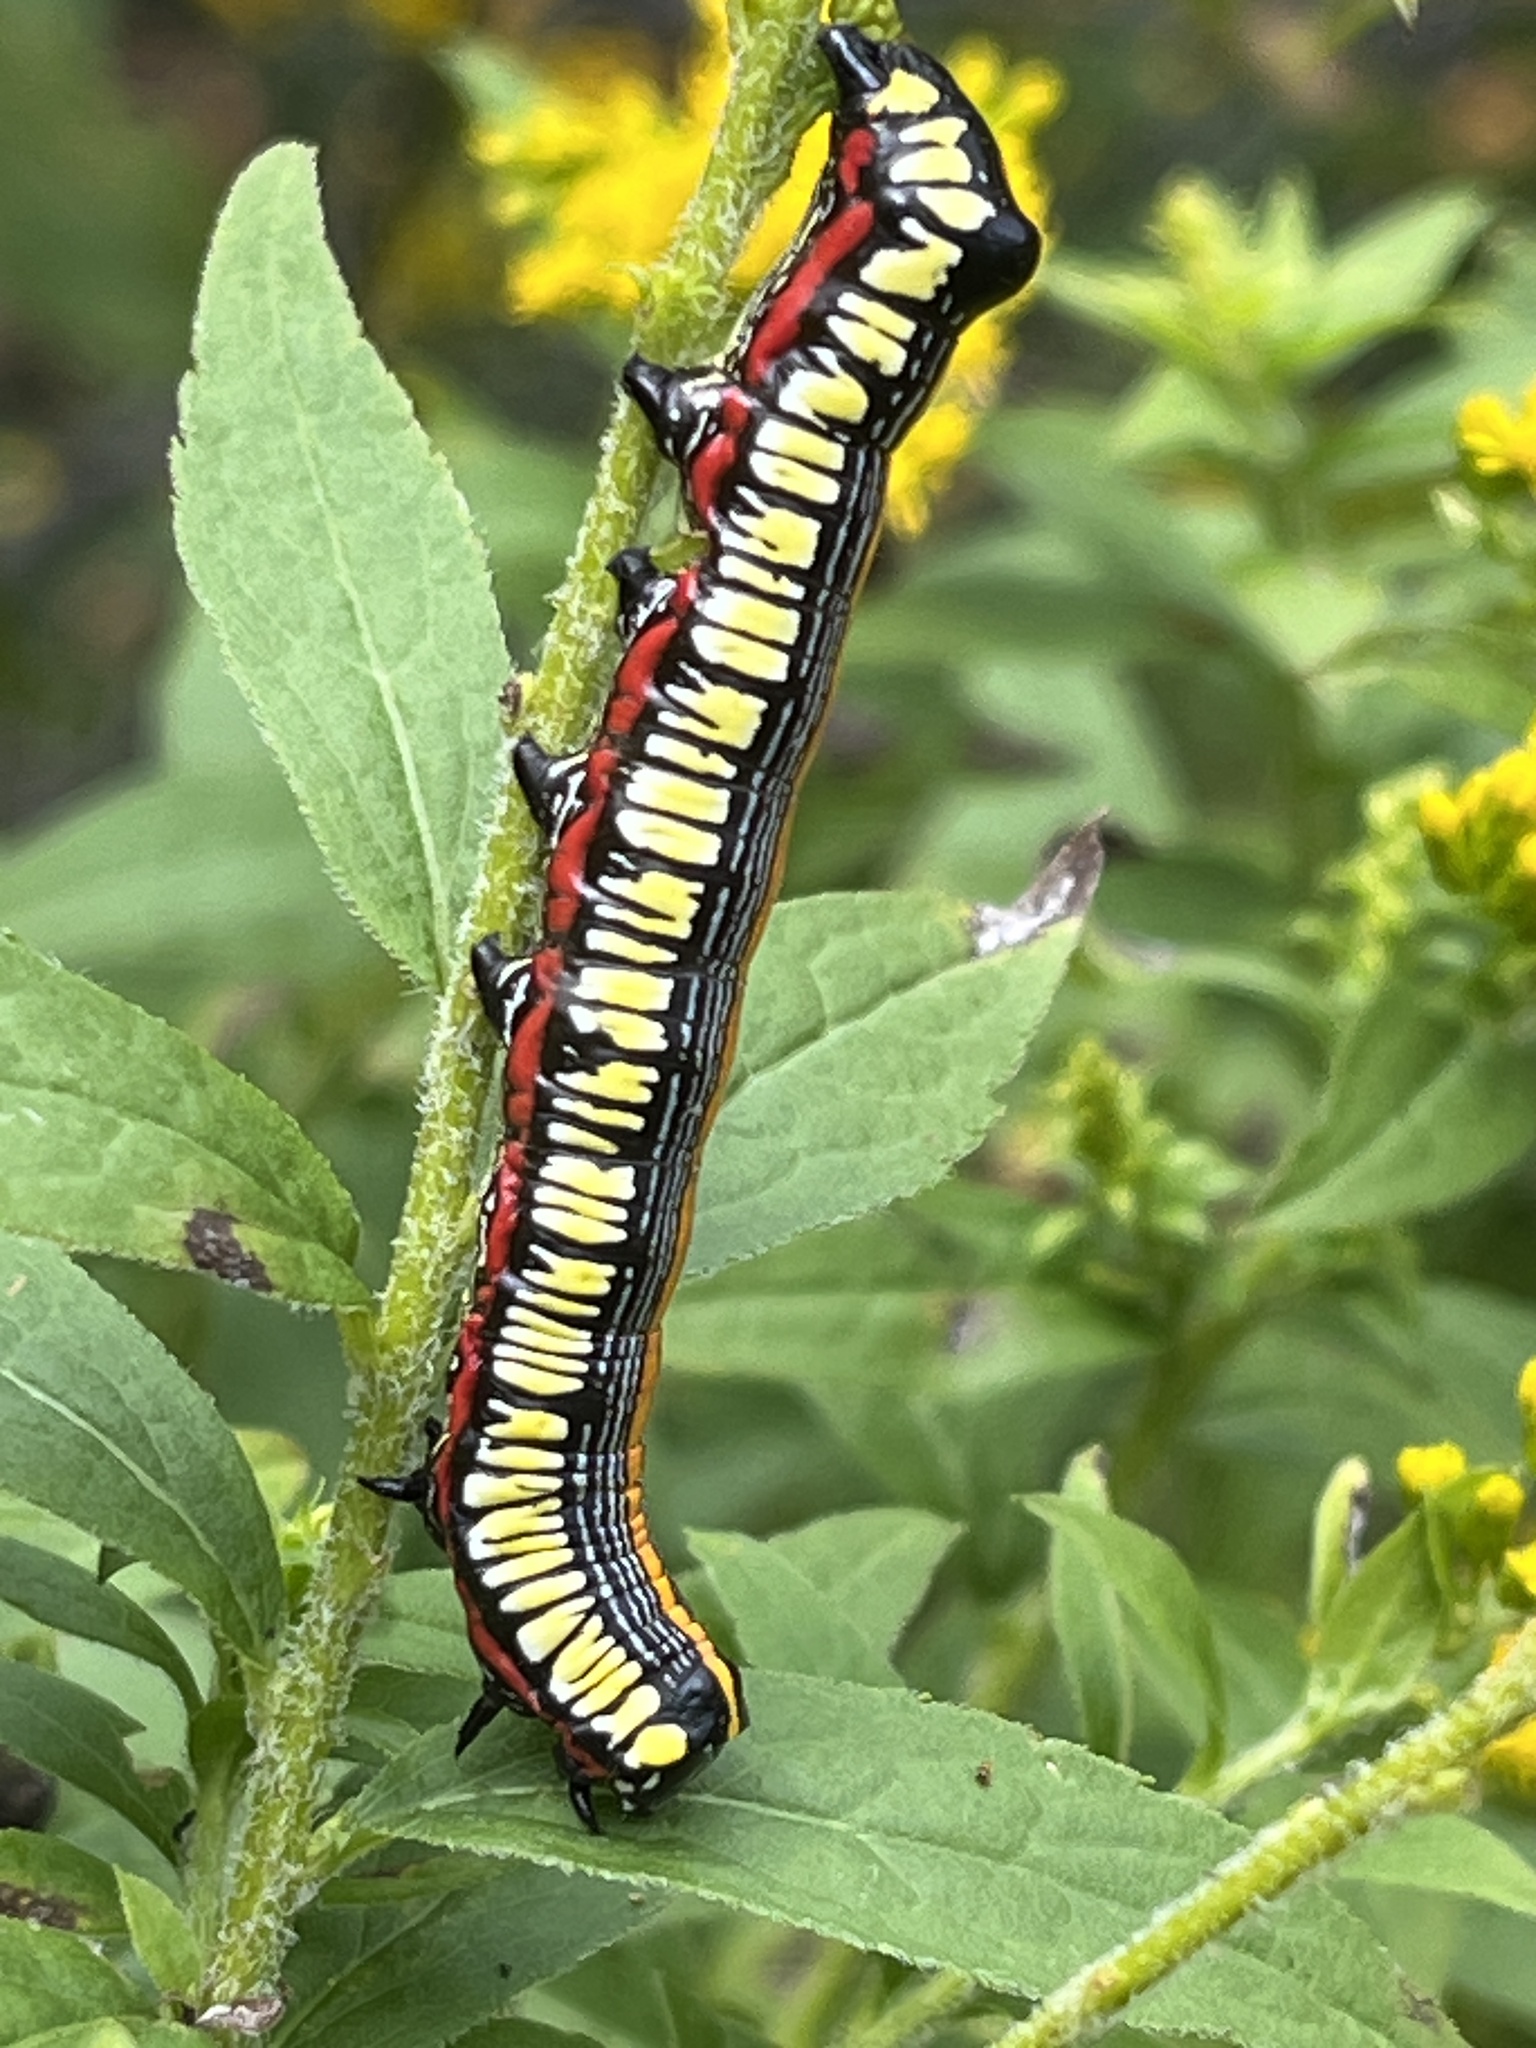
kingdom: Animalia
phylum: Arthropoda
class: Insecta
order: Lepidoptera
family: Noctuidae
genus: Cucullia
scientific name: Cucullia convexipennis
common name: Brown-hooded owlet
